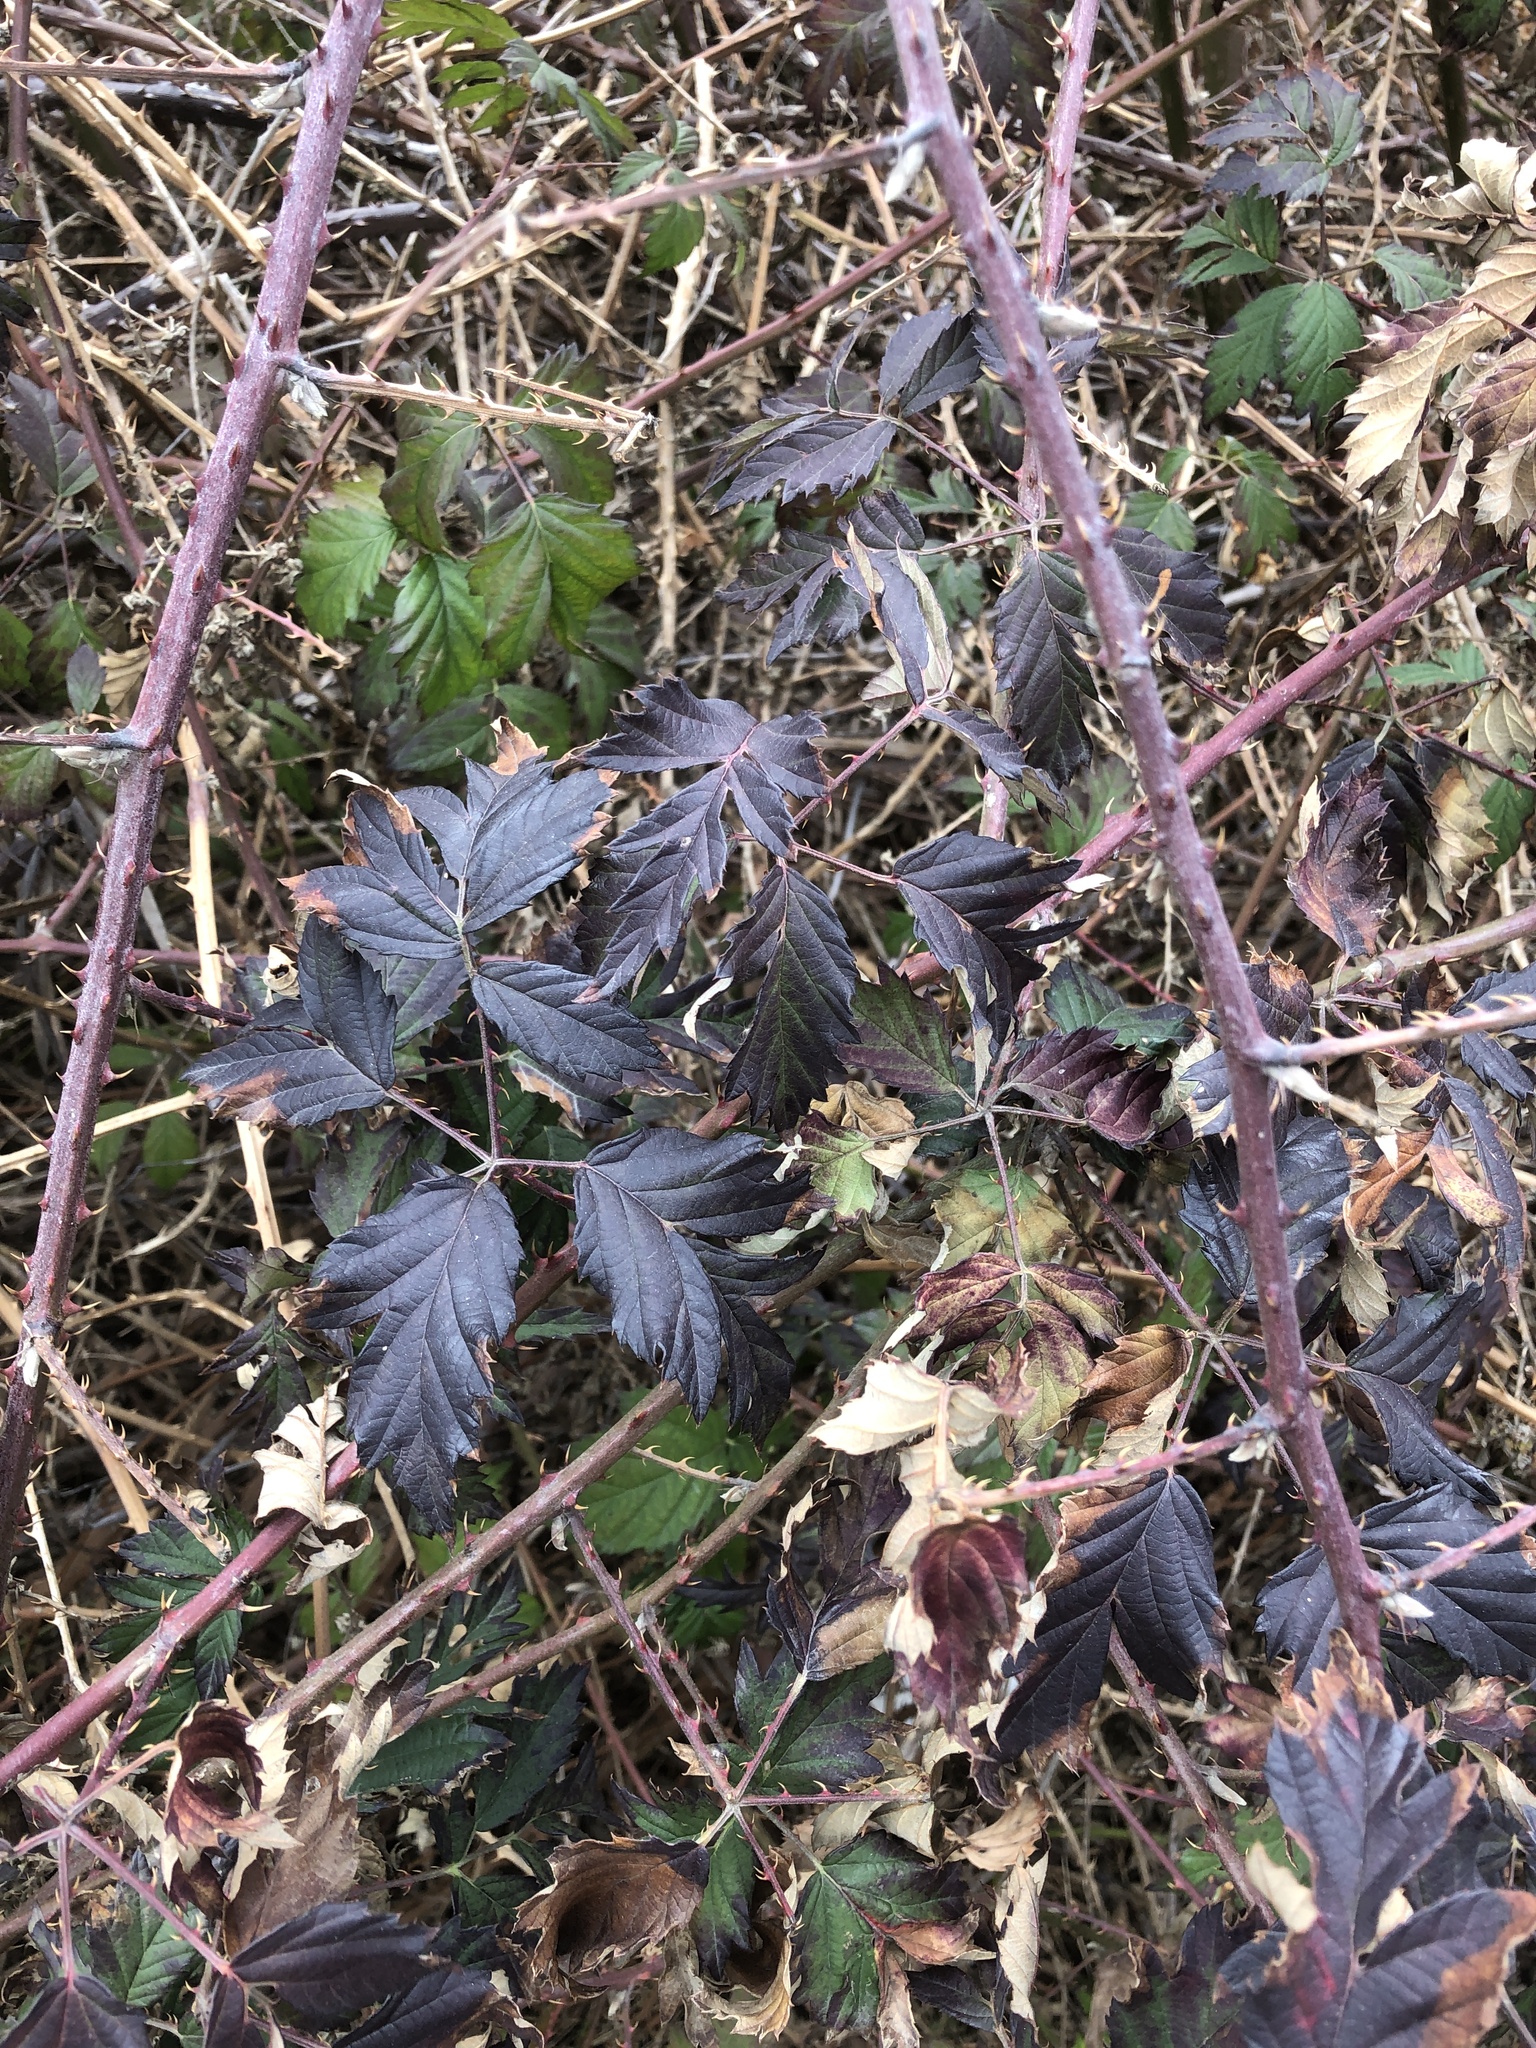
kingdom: Plantae
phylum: Tracheophyta
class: Magnoliopsida
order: Rosales
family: Rosaceae
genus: Rubus
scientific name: Rubus laciniatus
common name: Evergreen blackberry
